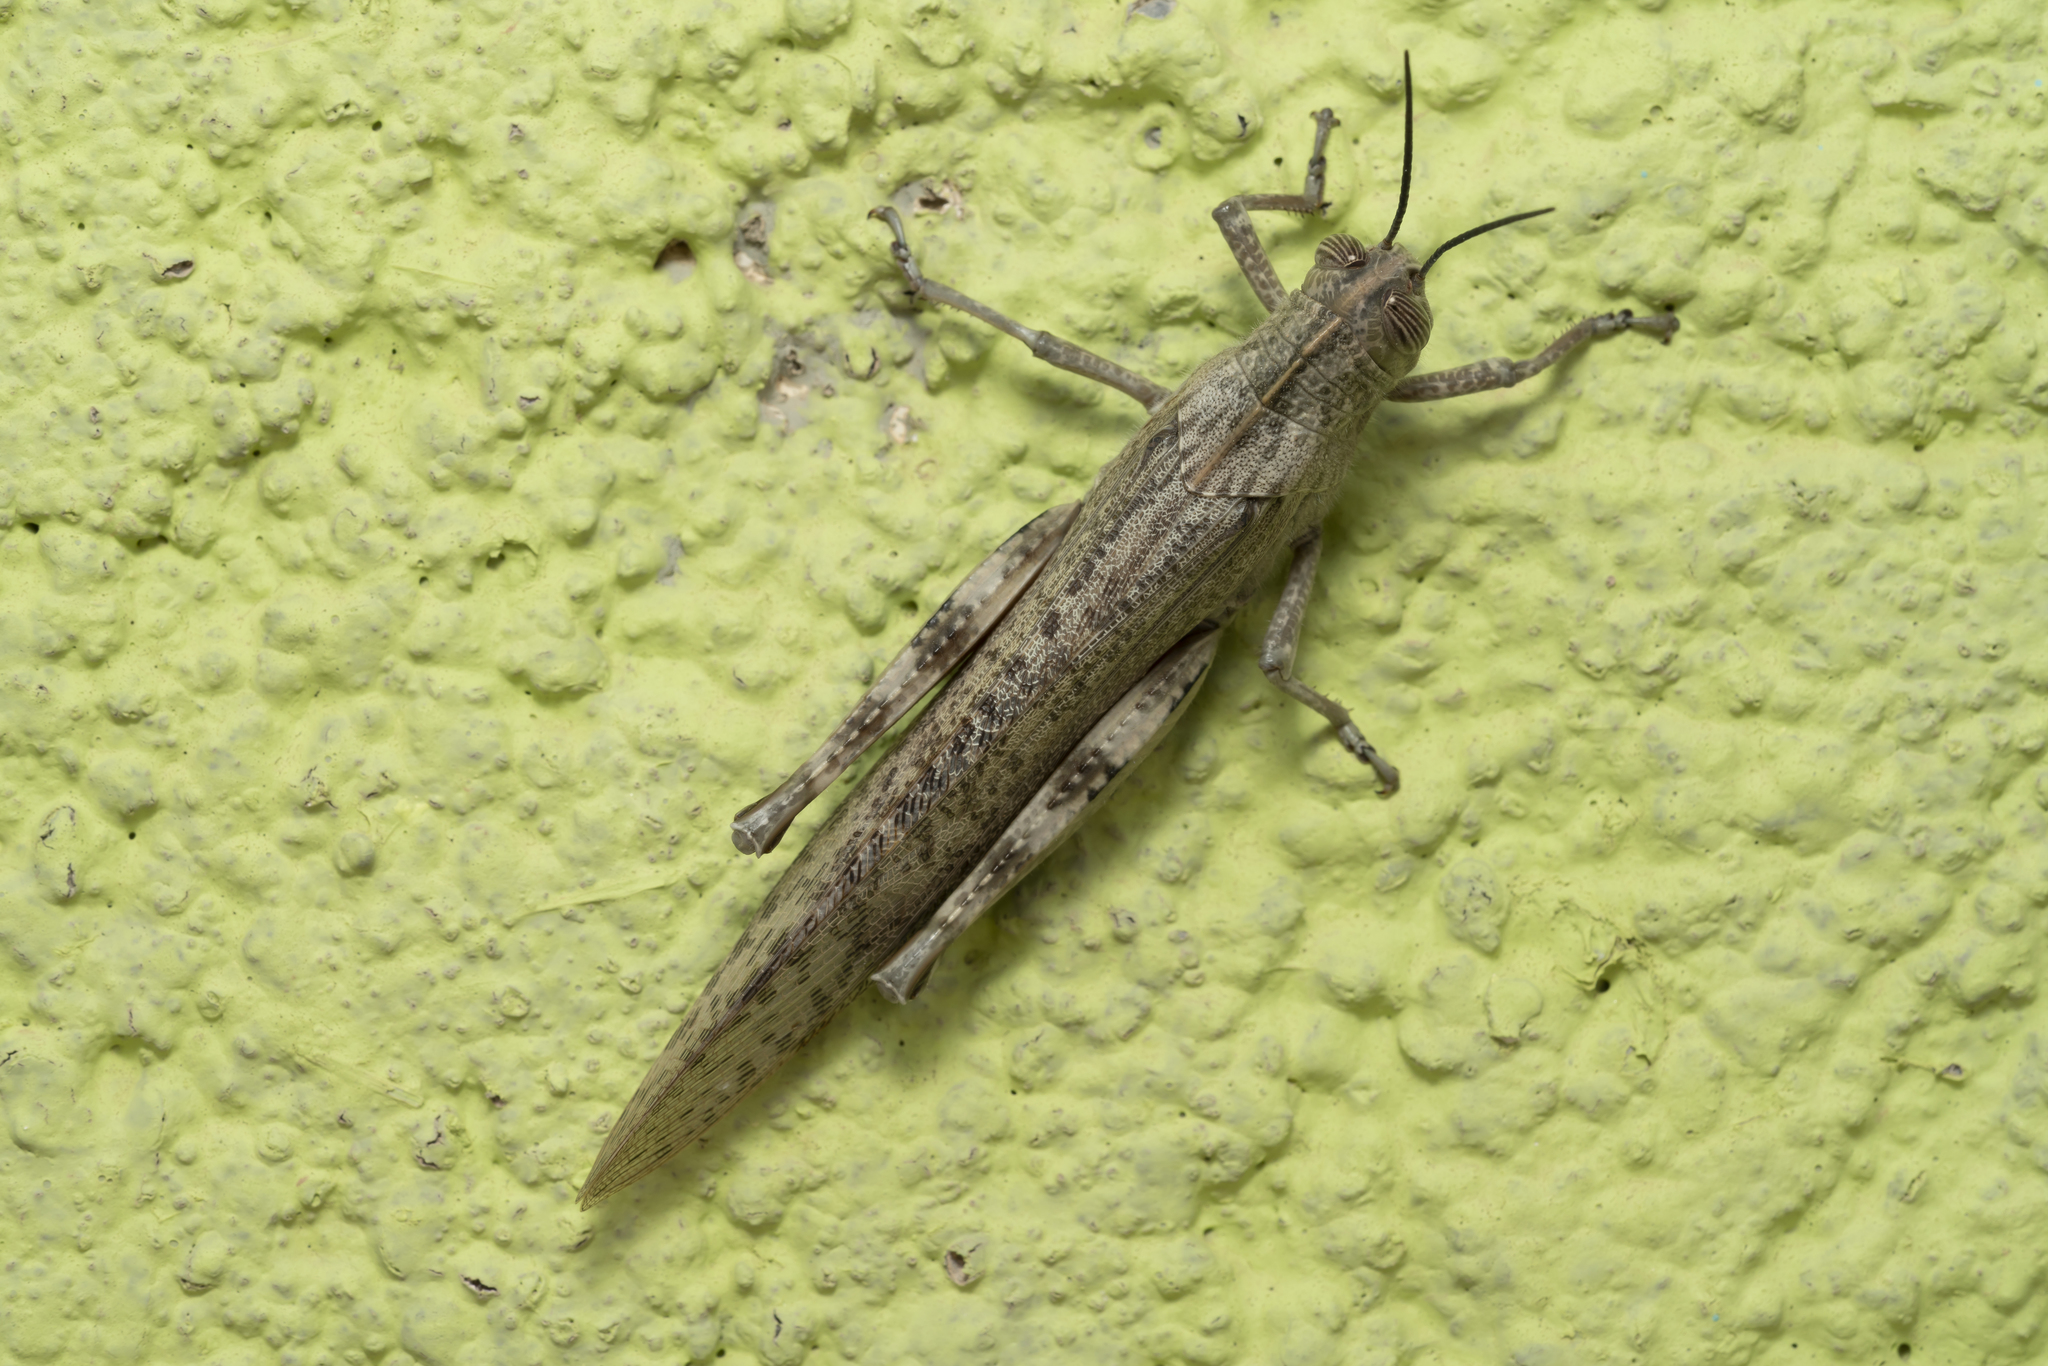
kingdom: Animalia
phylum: Arthropoda
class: Insecta
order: Orthoptera
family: Acrididae
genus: Anacridium
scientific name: Anacridium aegyptium
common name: Egyptian grasshopper
